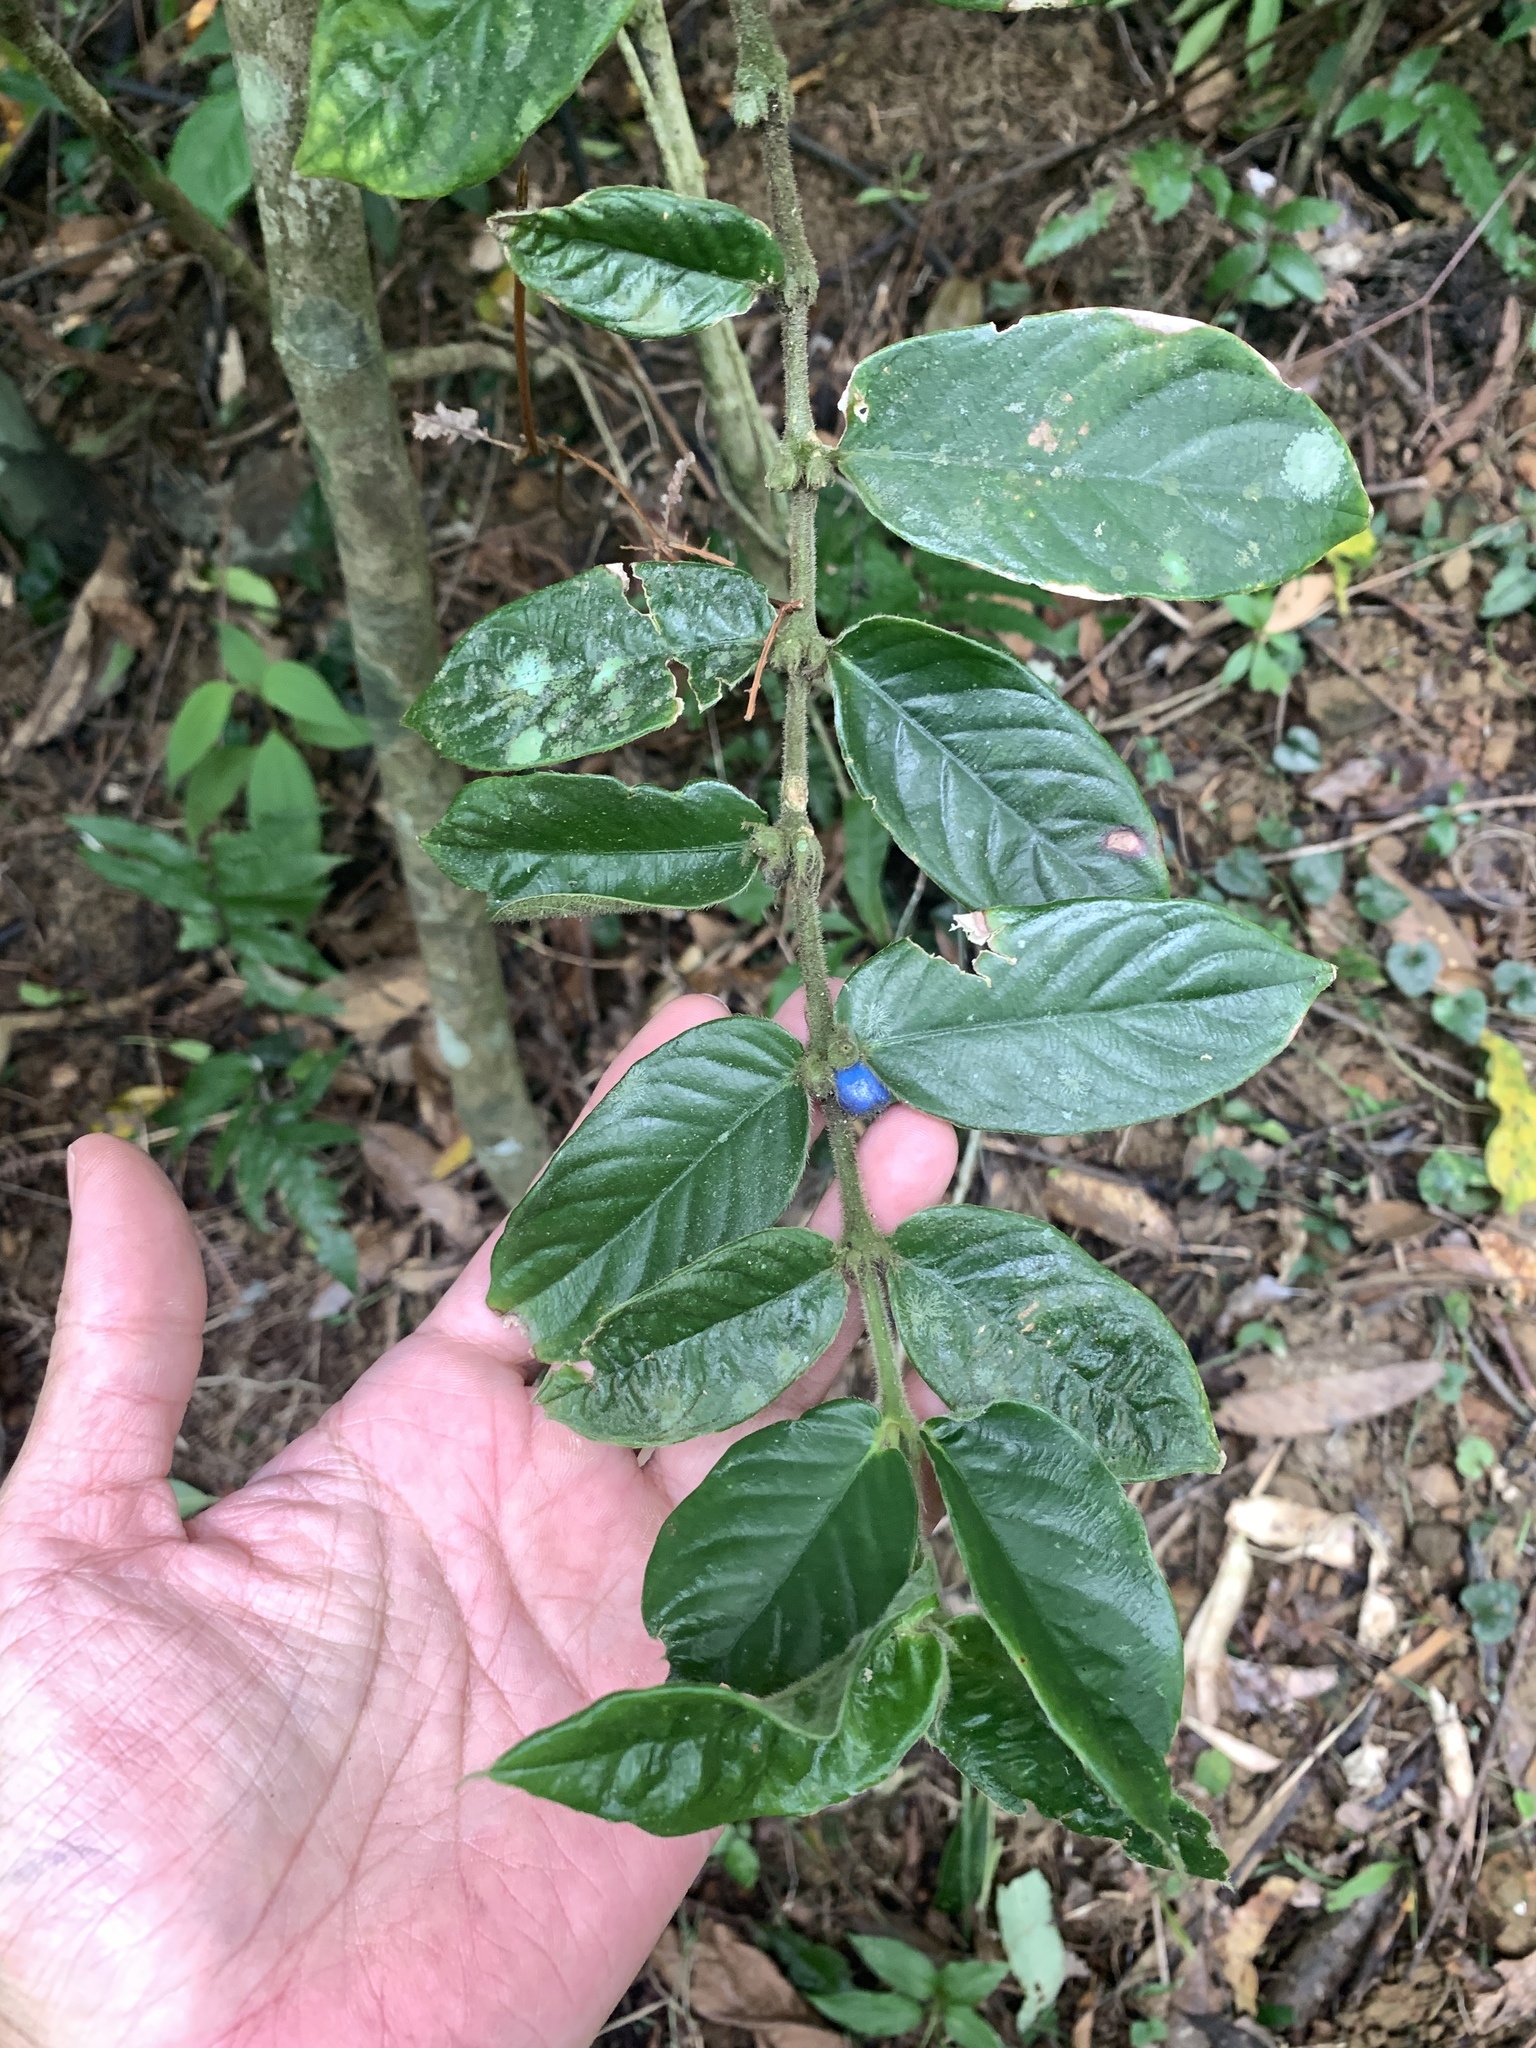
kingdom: Plantae
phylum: Tracheophyta
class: Magnoliopsida
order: Gentianales
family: Rubiaceae
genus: Lasianthus
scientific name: Lasianthus attenuatus
